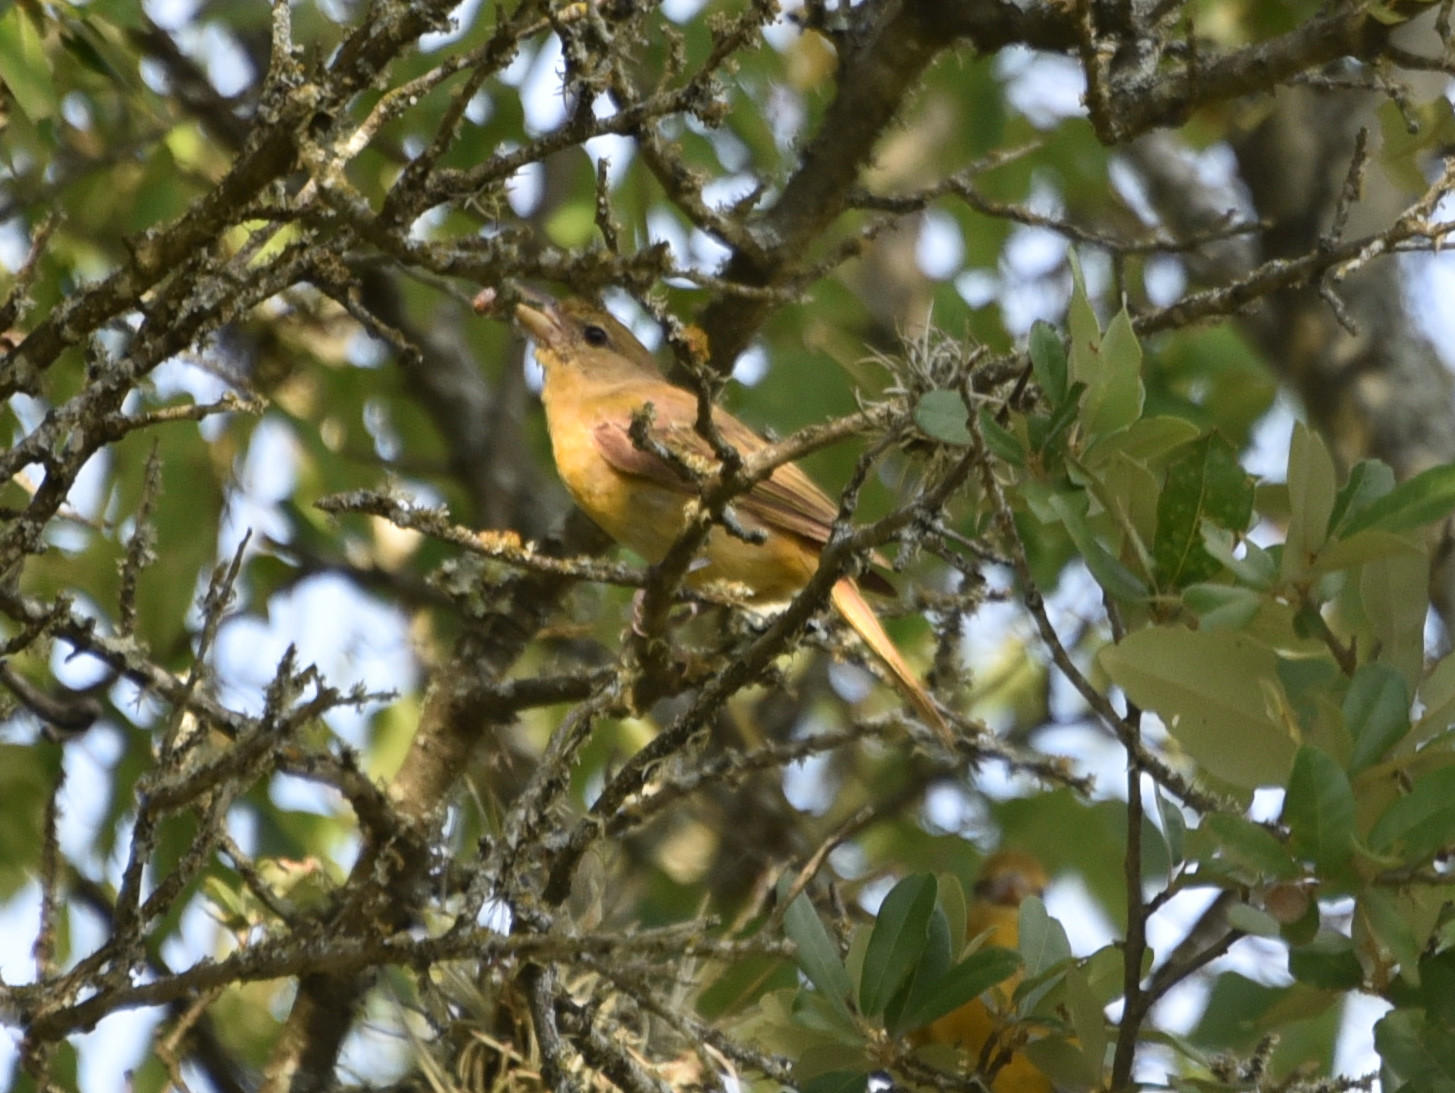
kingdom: Animalia
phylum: Chordata
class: Aves
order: Passeriformes
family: Cardinalidae
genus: Piranga
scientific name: Piranga rubra
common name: Summer tanager
